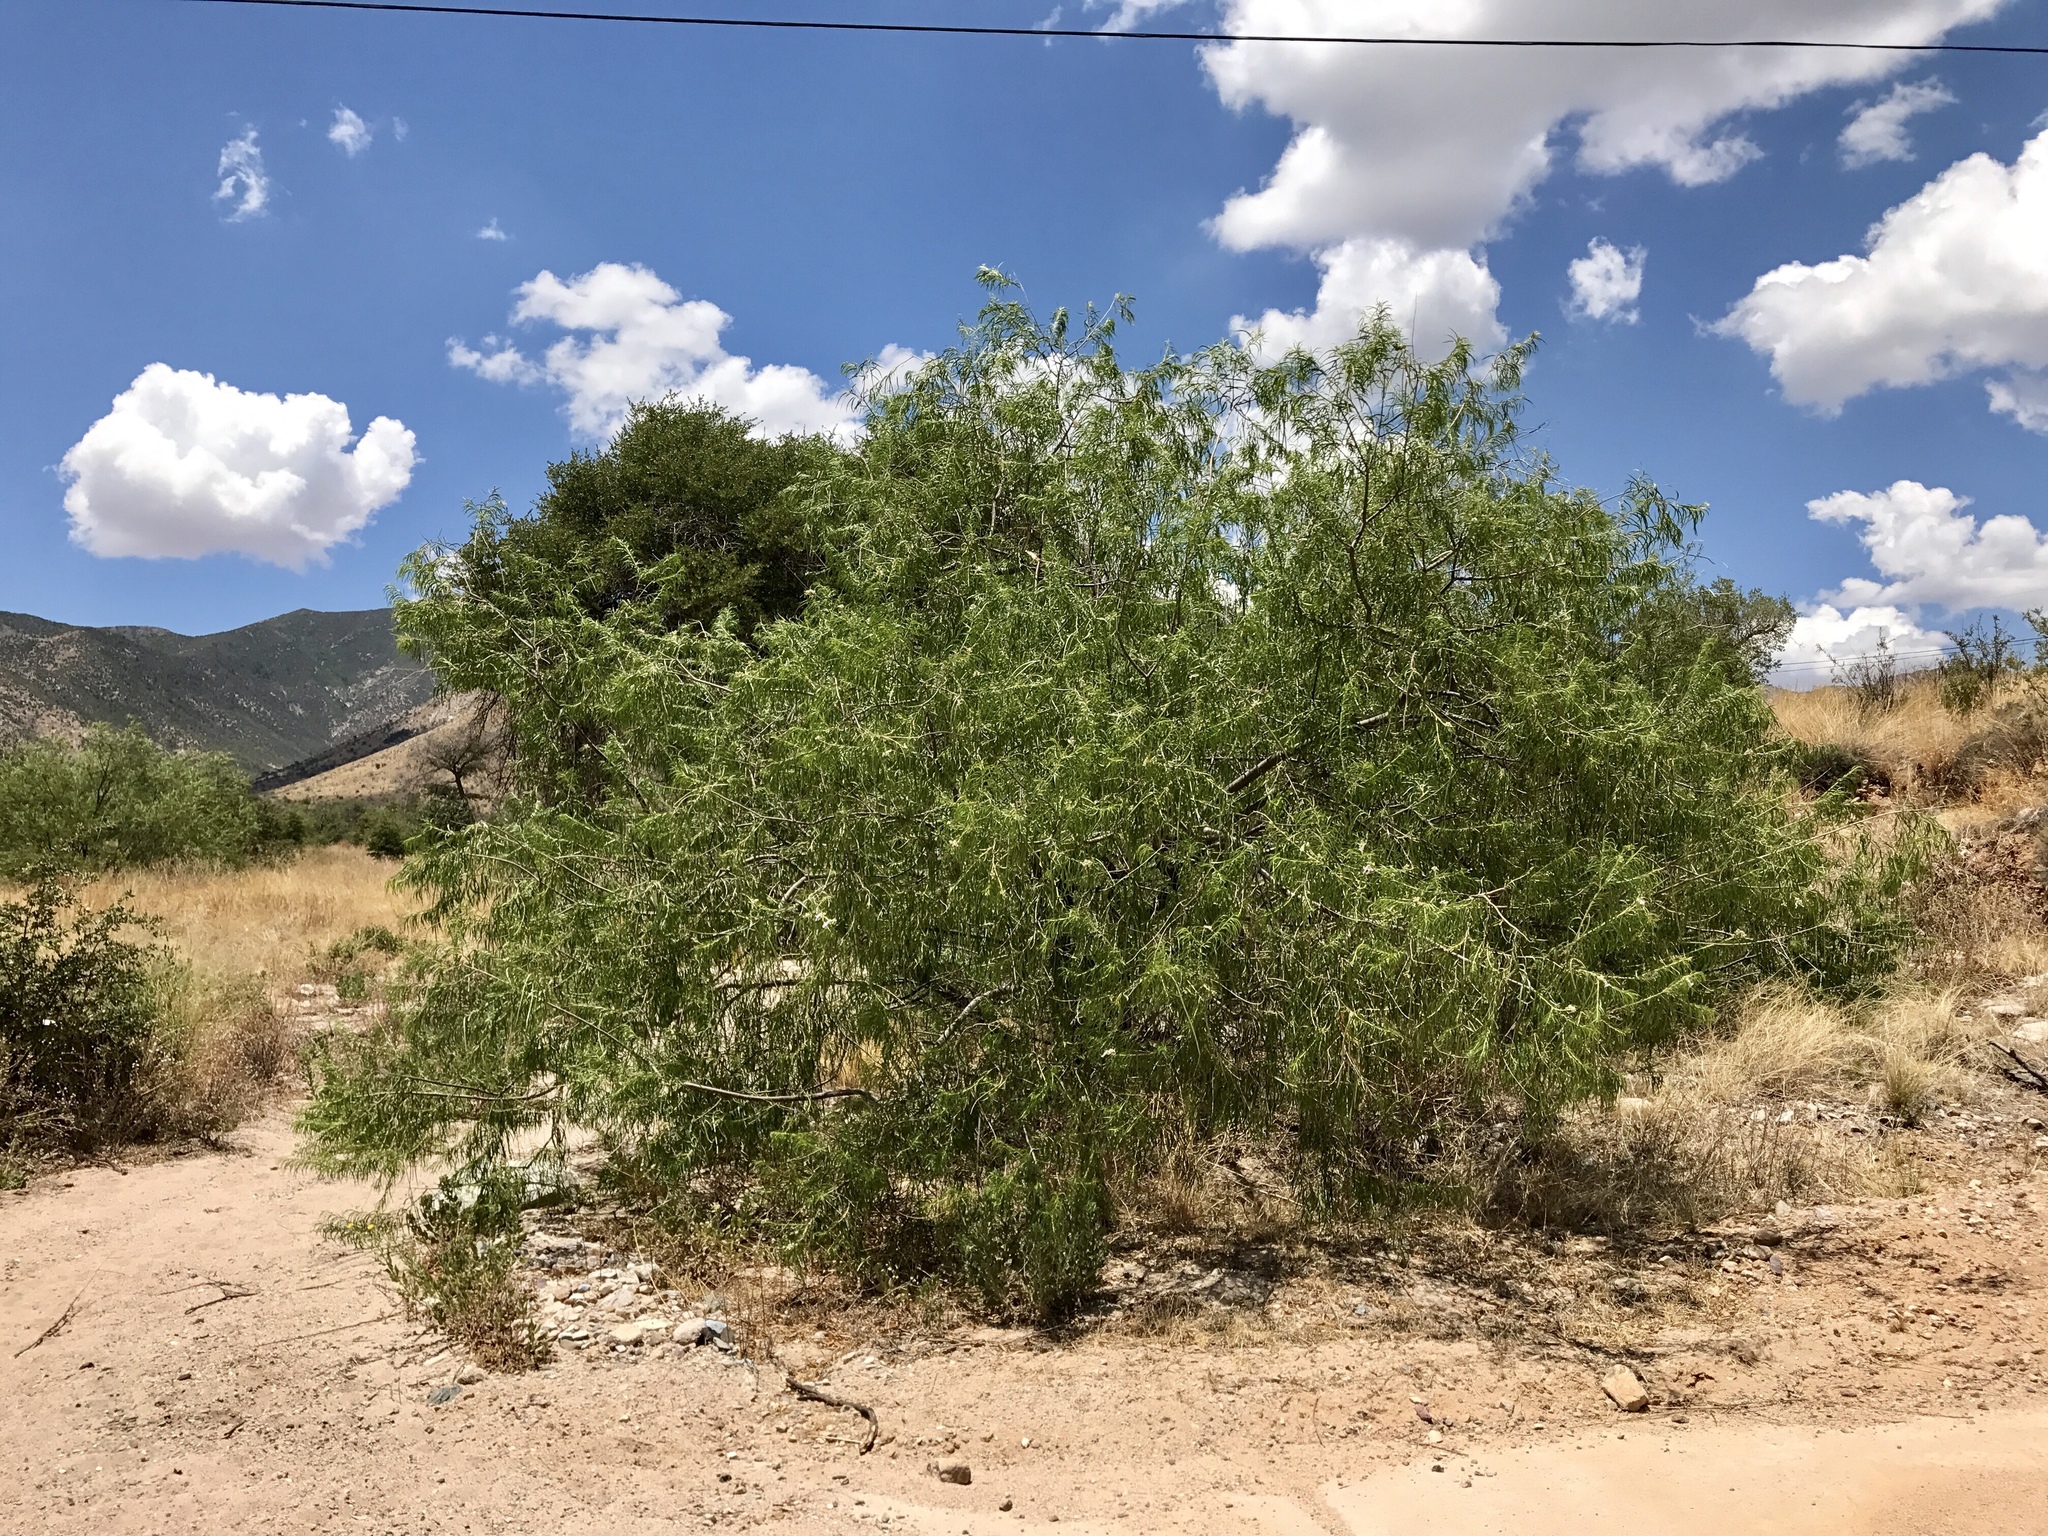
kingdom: Plantae
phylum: Tracheophyta
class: Magnoliopsida
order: Lamiales
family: Bignoniaceae
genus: Chilopsis
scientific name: Chilopsis linearis
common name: Desert-willow
